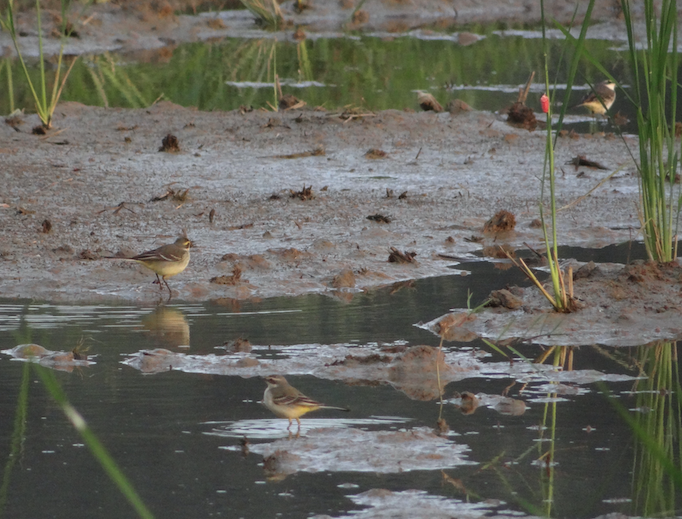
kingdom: Animalia
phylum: Chordata
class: Aves
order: Passeriformes
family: Motacillidae
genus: Motacilla
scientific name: Motacilla tschutschensis
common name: Eastern yellow wagtail
